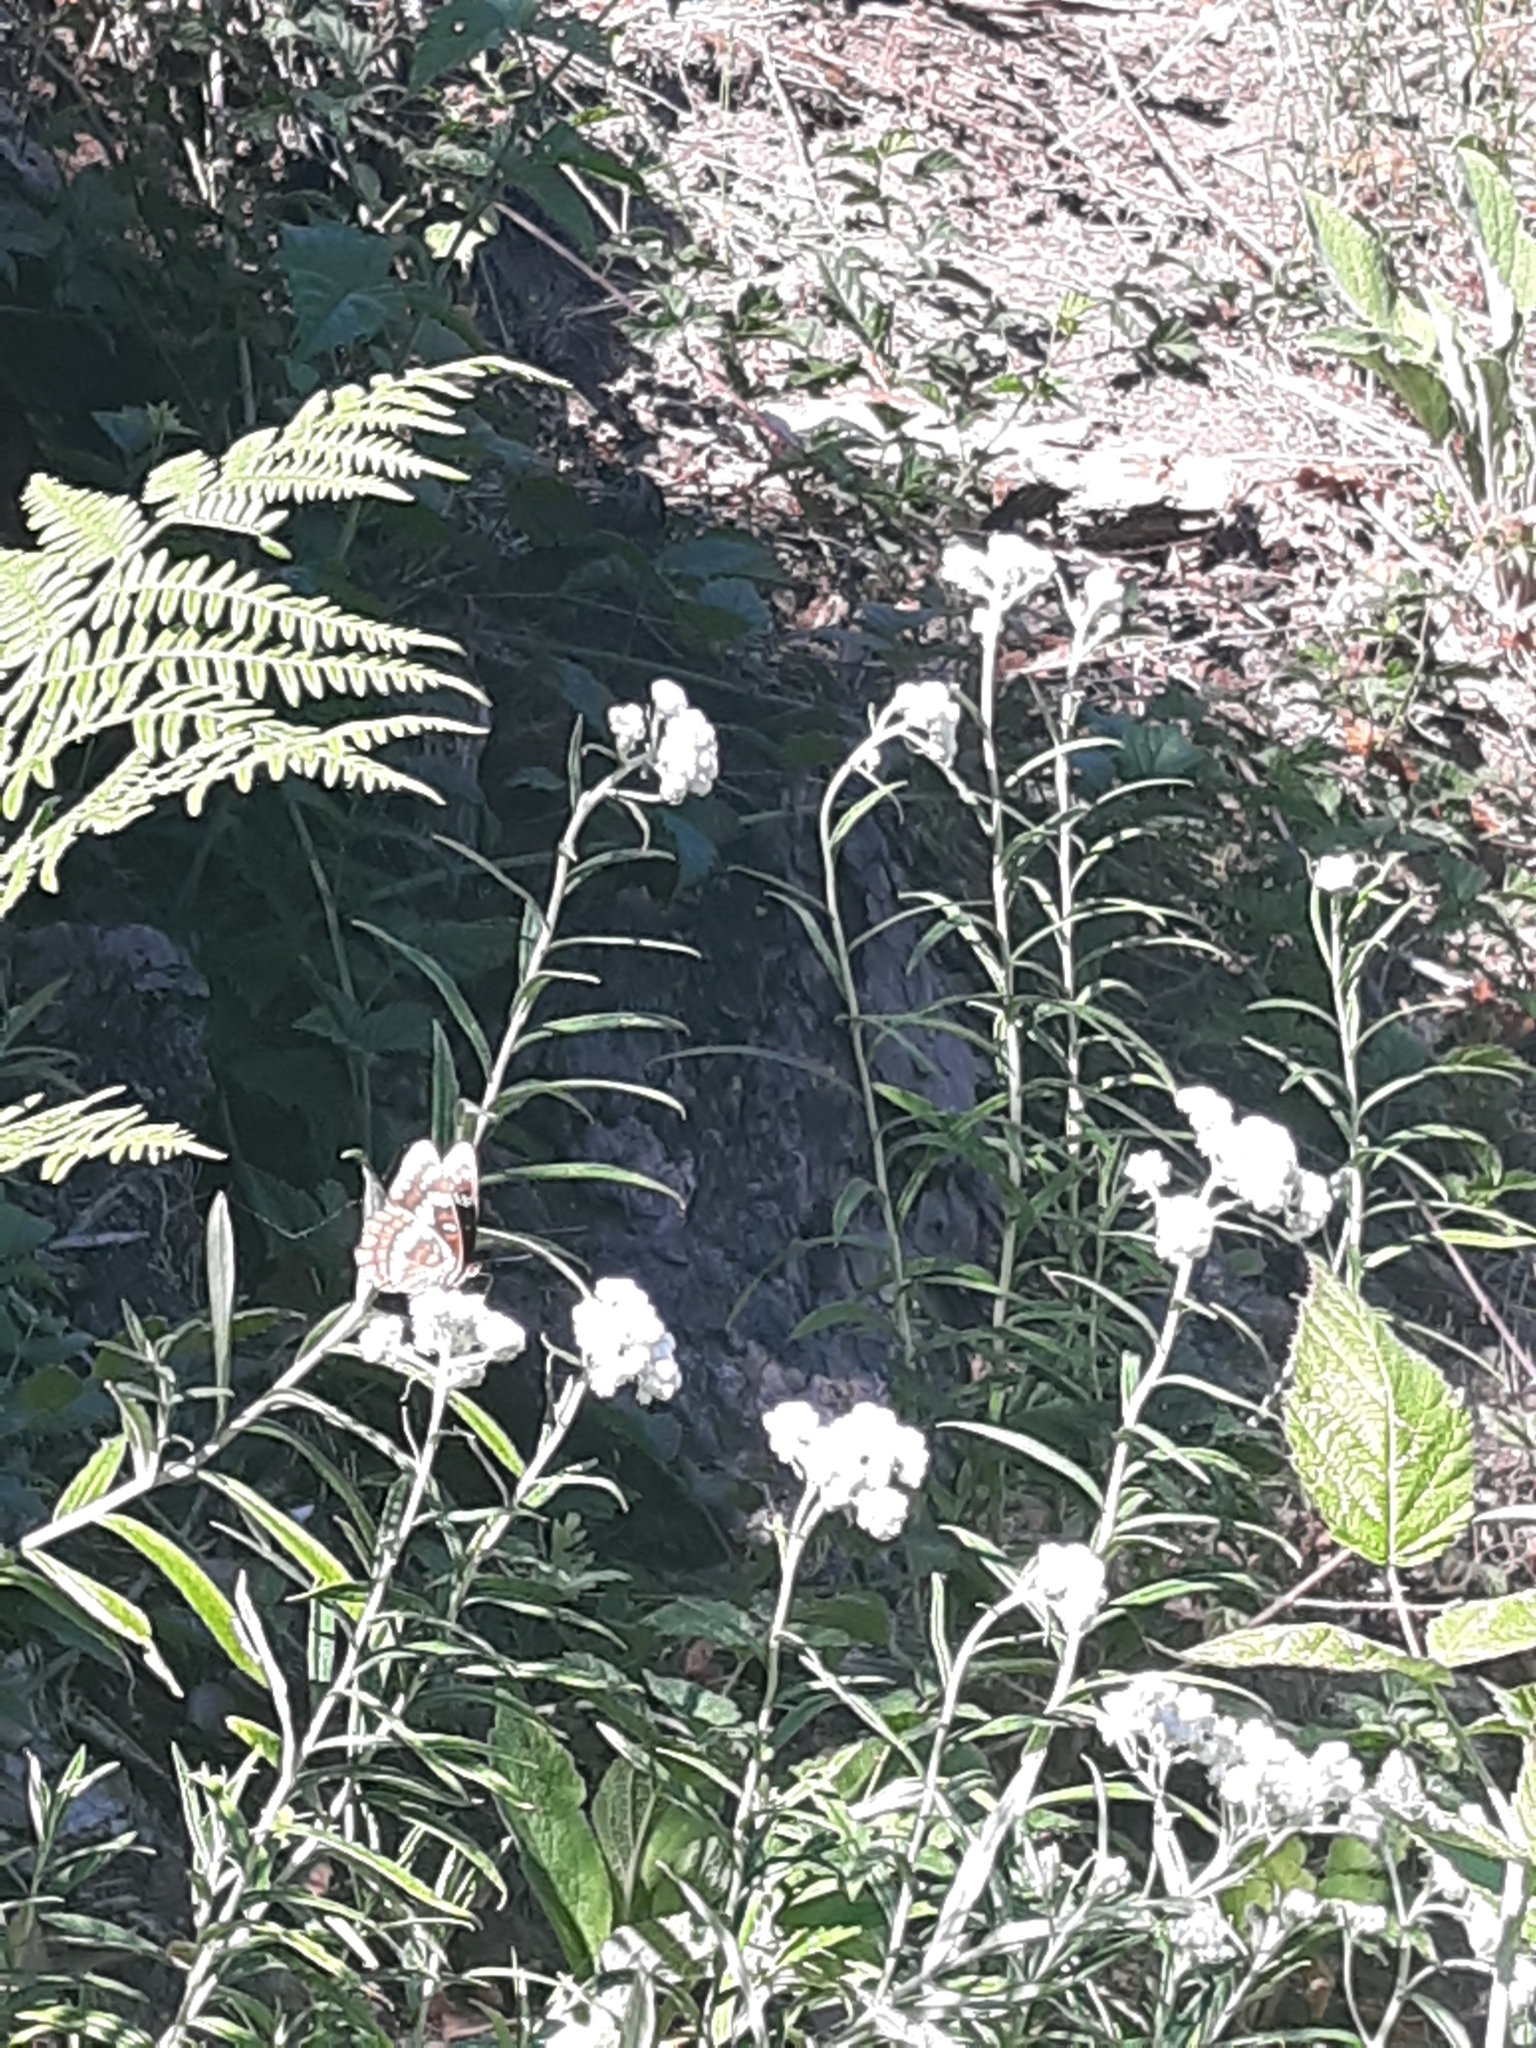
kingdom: Animalia
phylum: Arthropoda
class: Insecta
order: Lepidoptera
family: Nymphalidae
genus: Limenitis
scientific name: Limenitis lorquini
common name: Lorquin's admiral
